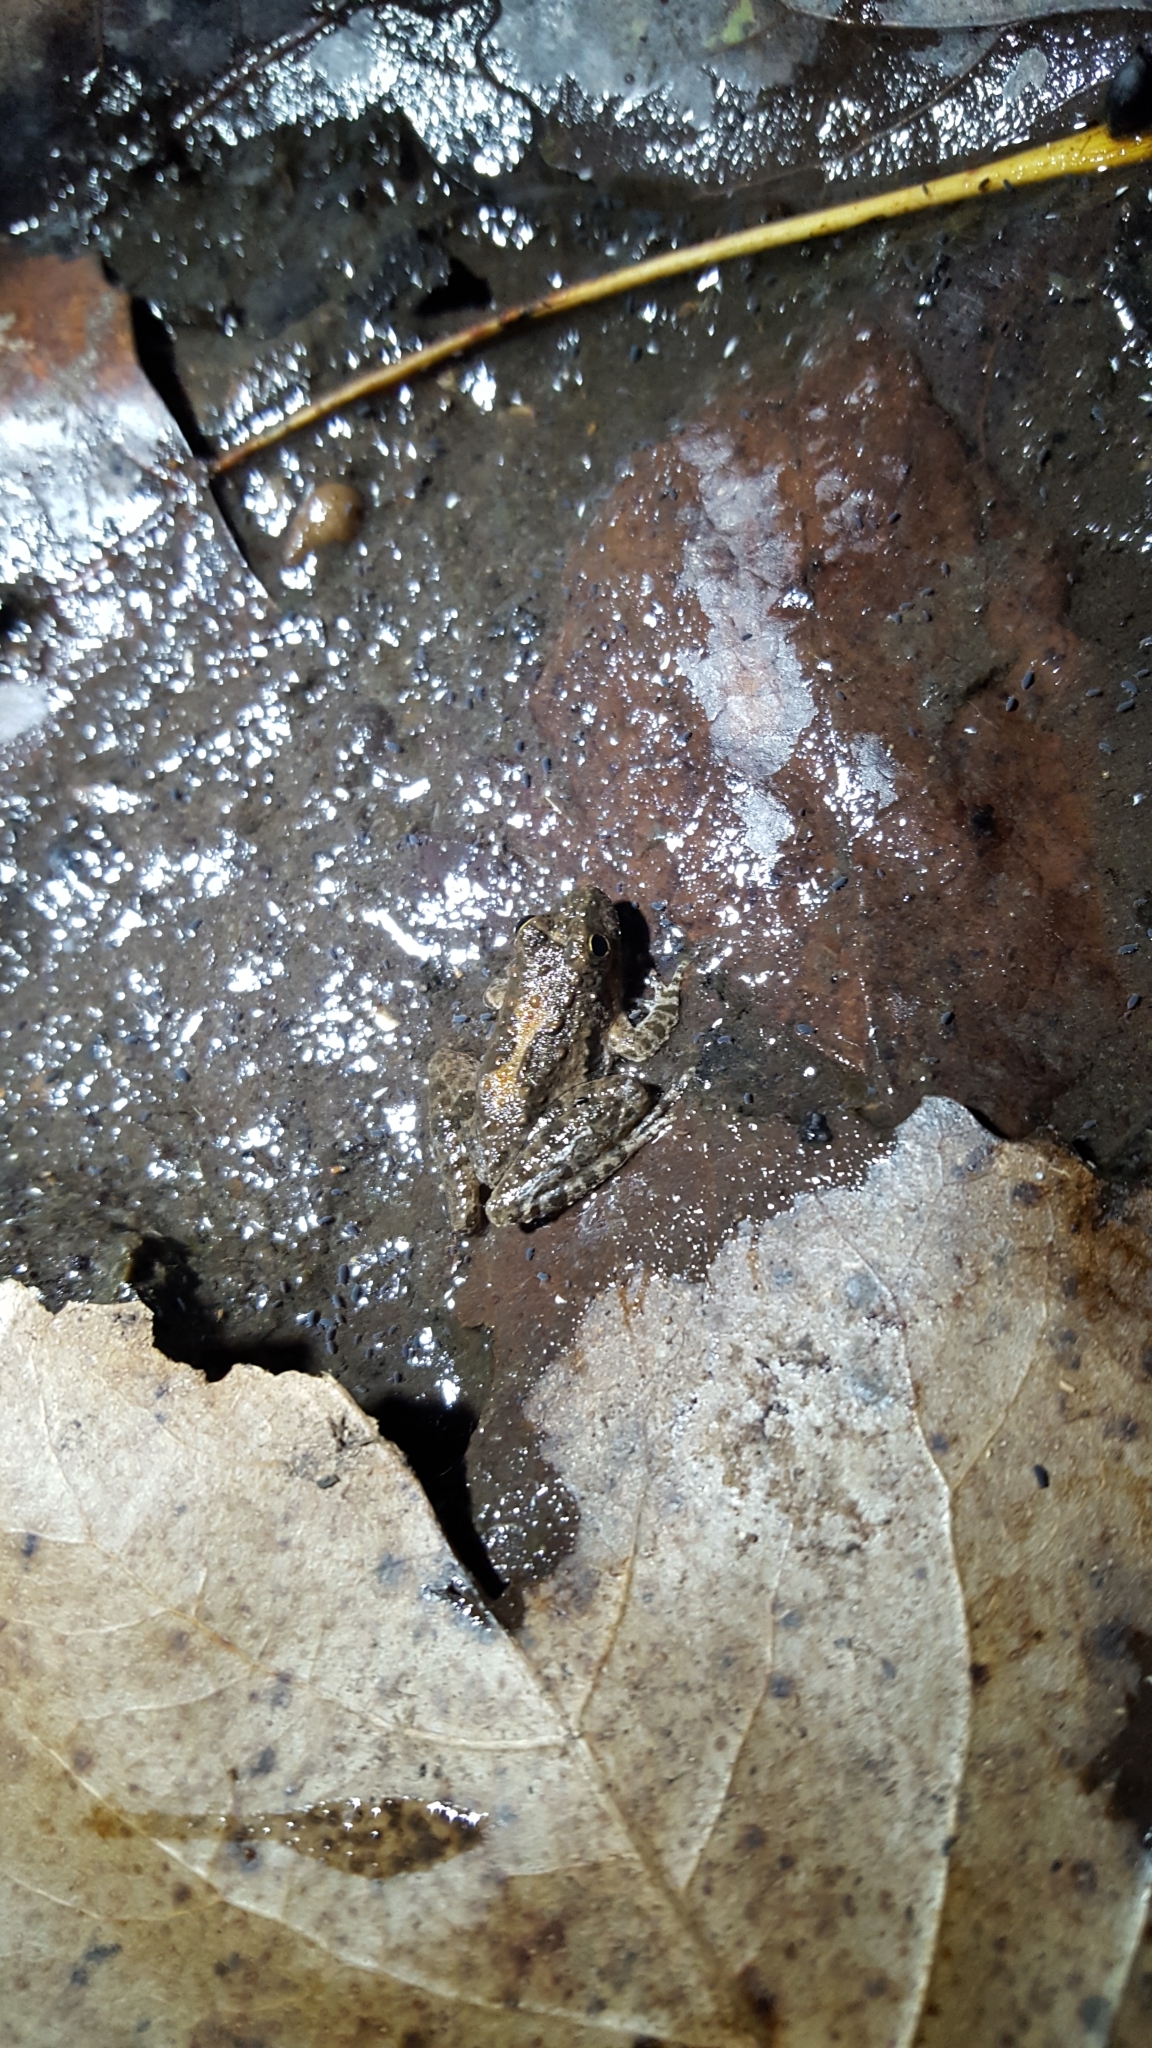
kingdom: Animalia
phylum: Chordata
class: Amphibia
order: Anura
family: Hylidae
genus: Acris
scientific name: Acris blanchardi
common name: Blanchard's cricket frog
